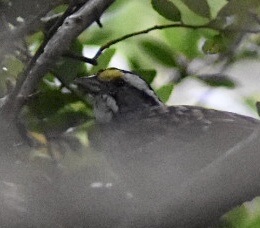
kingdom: Animalia
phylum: Chordata
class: Aves
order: Passeriformes
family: Passerellidae
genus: Zonotrichia
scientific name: Zonotrichia albicollis
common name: White-throated sparrow
